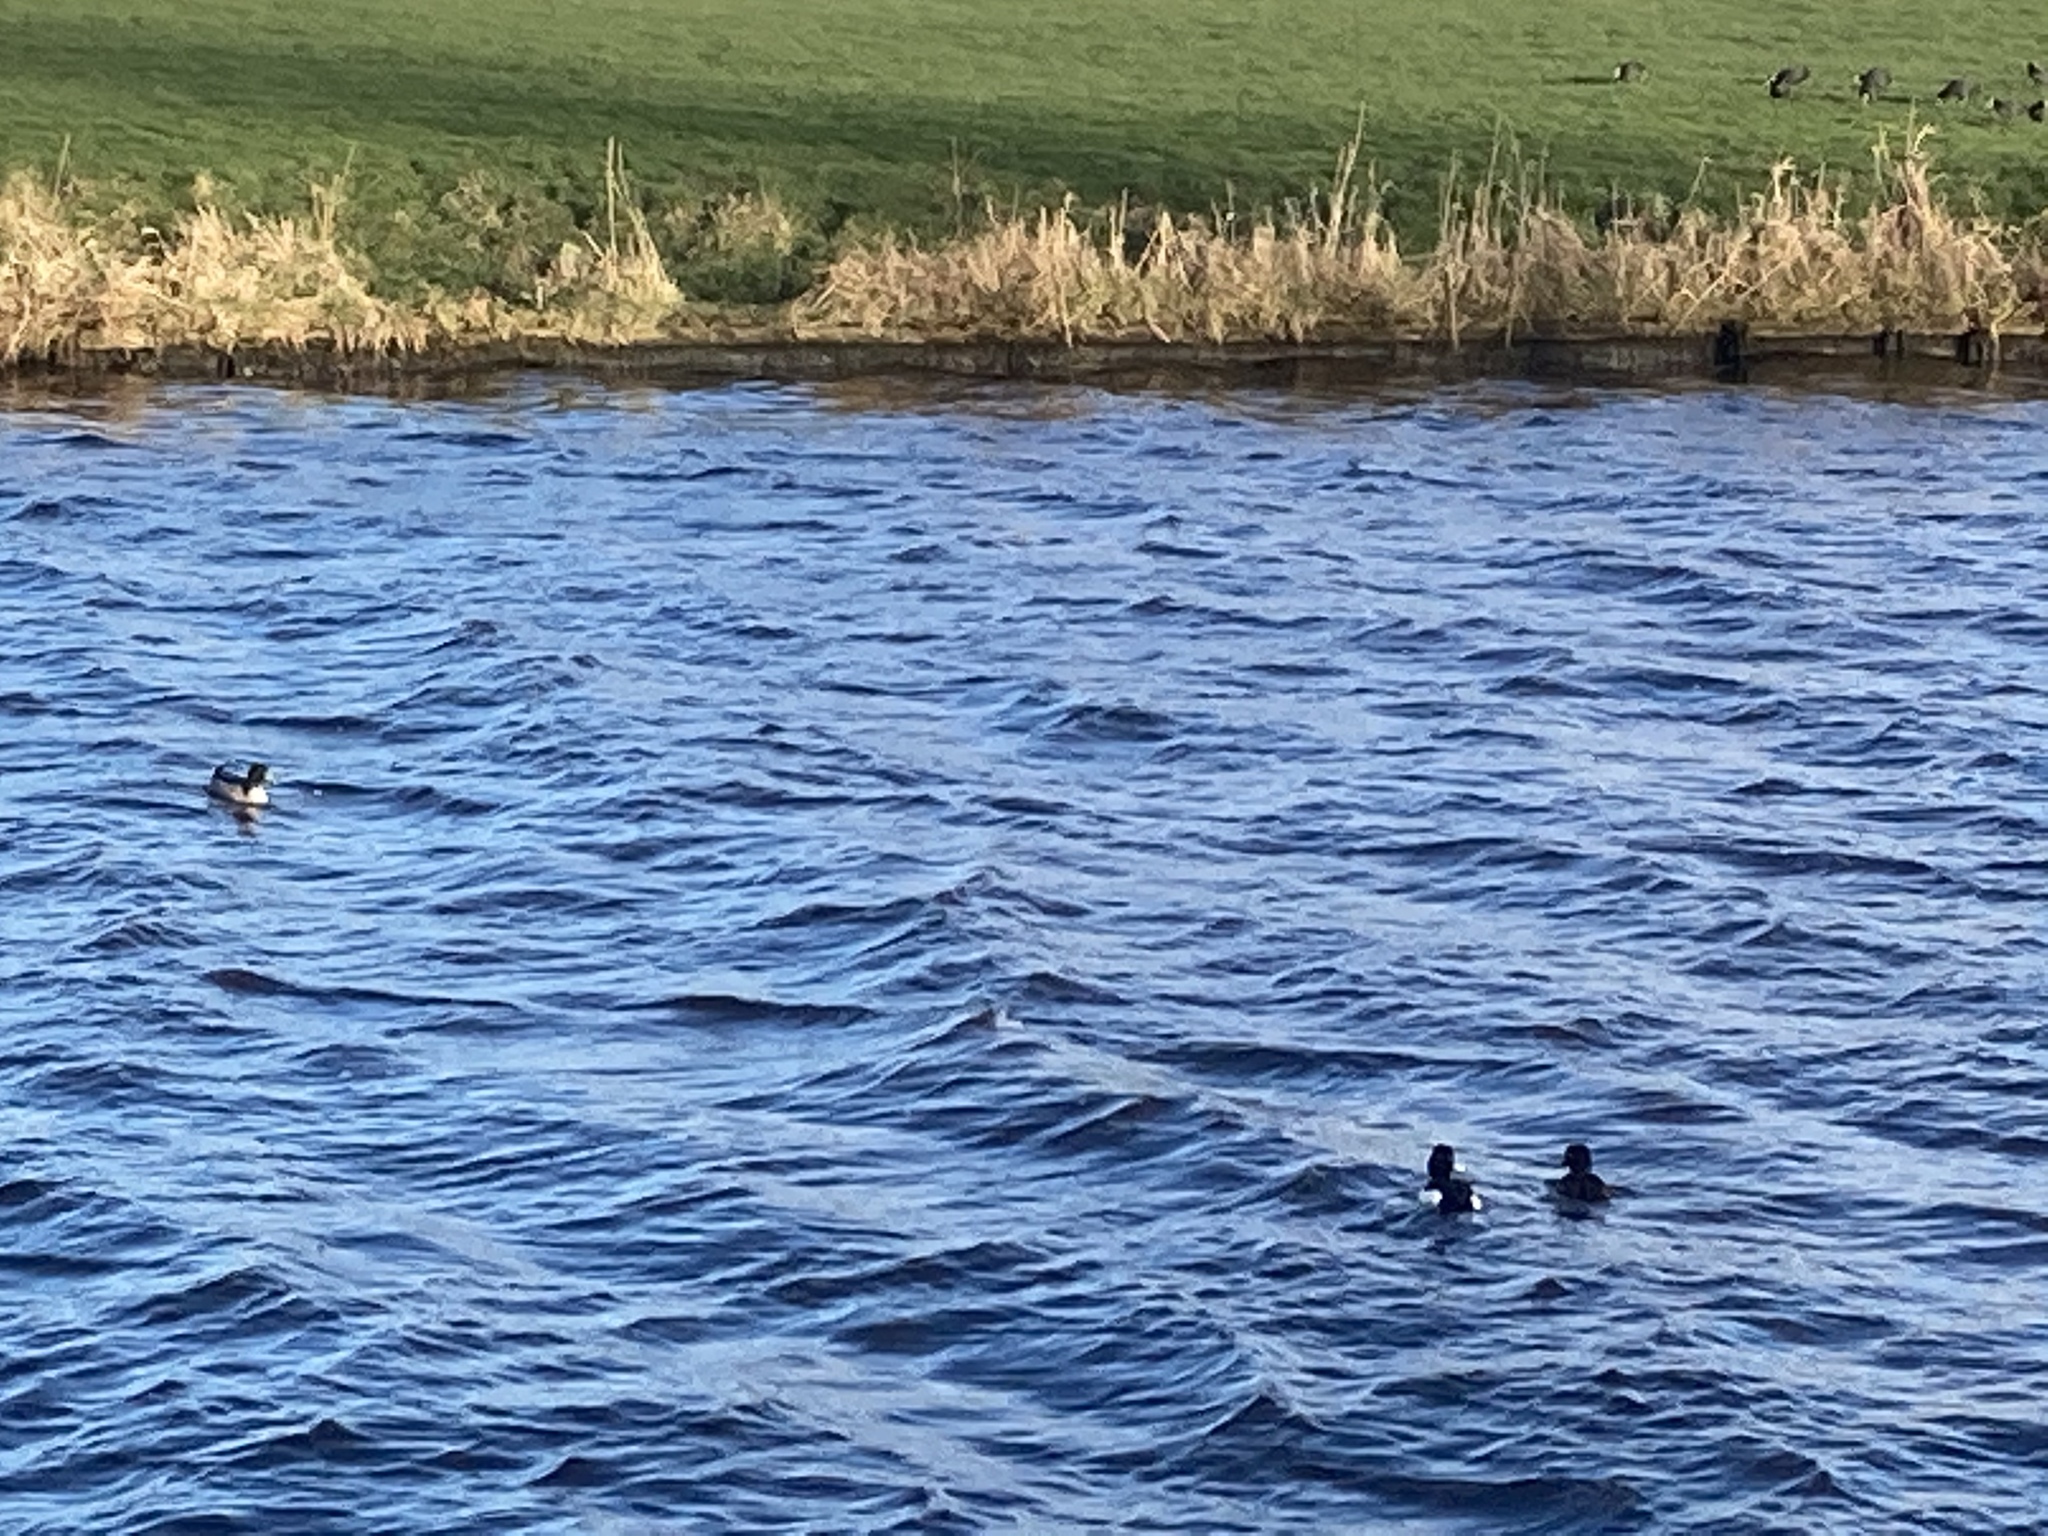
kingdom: Animalia
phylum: Chordata
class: Aves
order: Anseriformes
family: Anatidae
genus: Aythya
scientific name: Aythya fuligula
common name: Tufted duck
